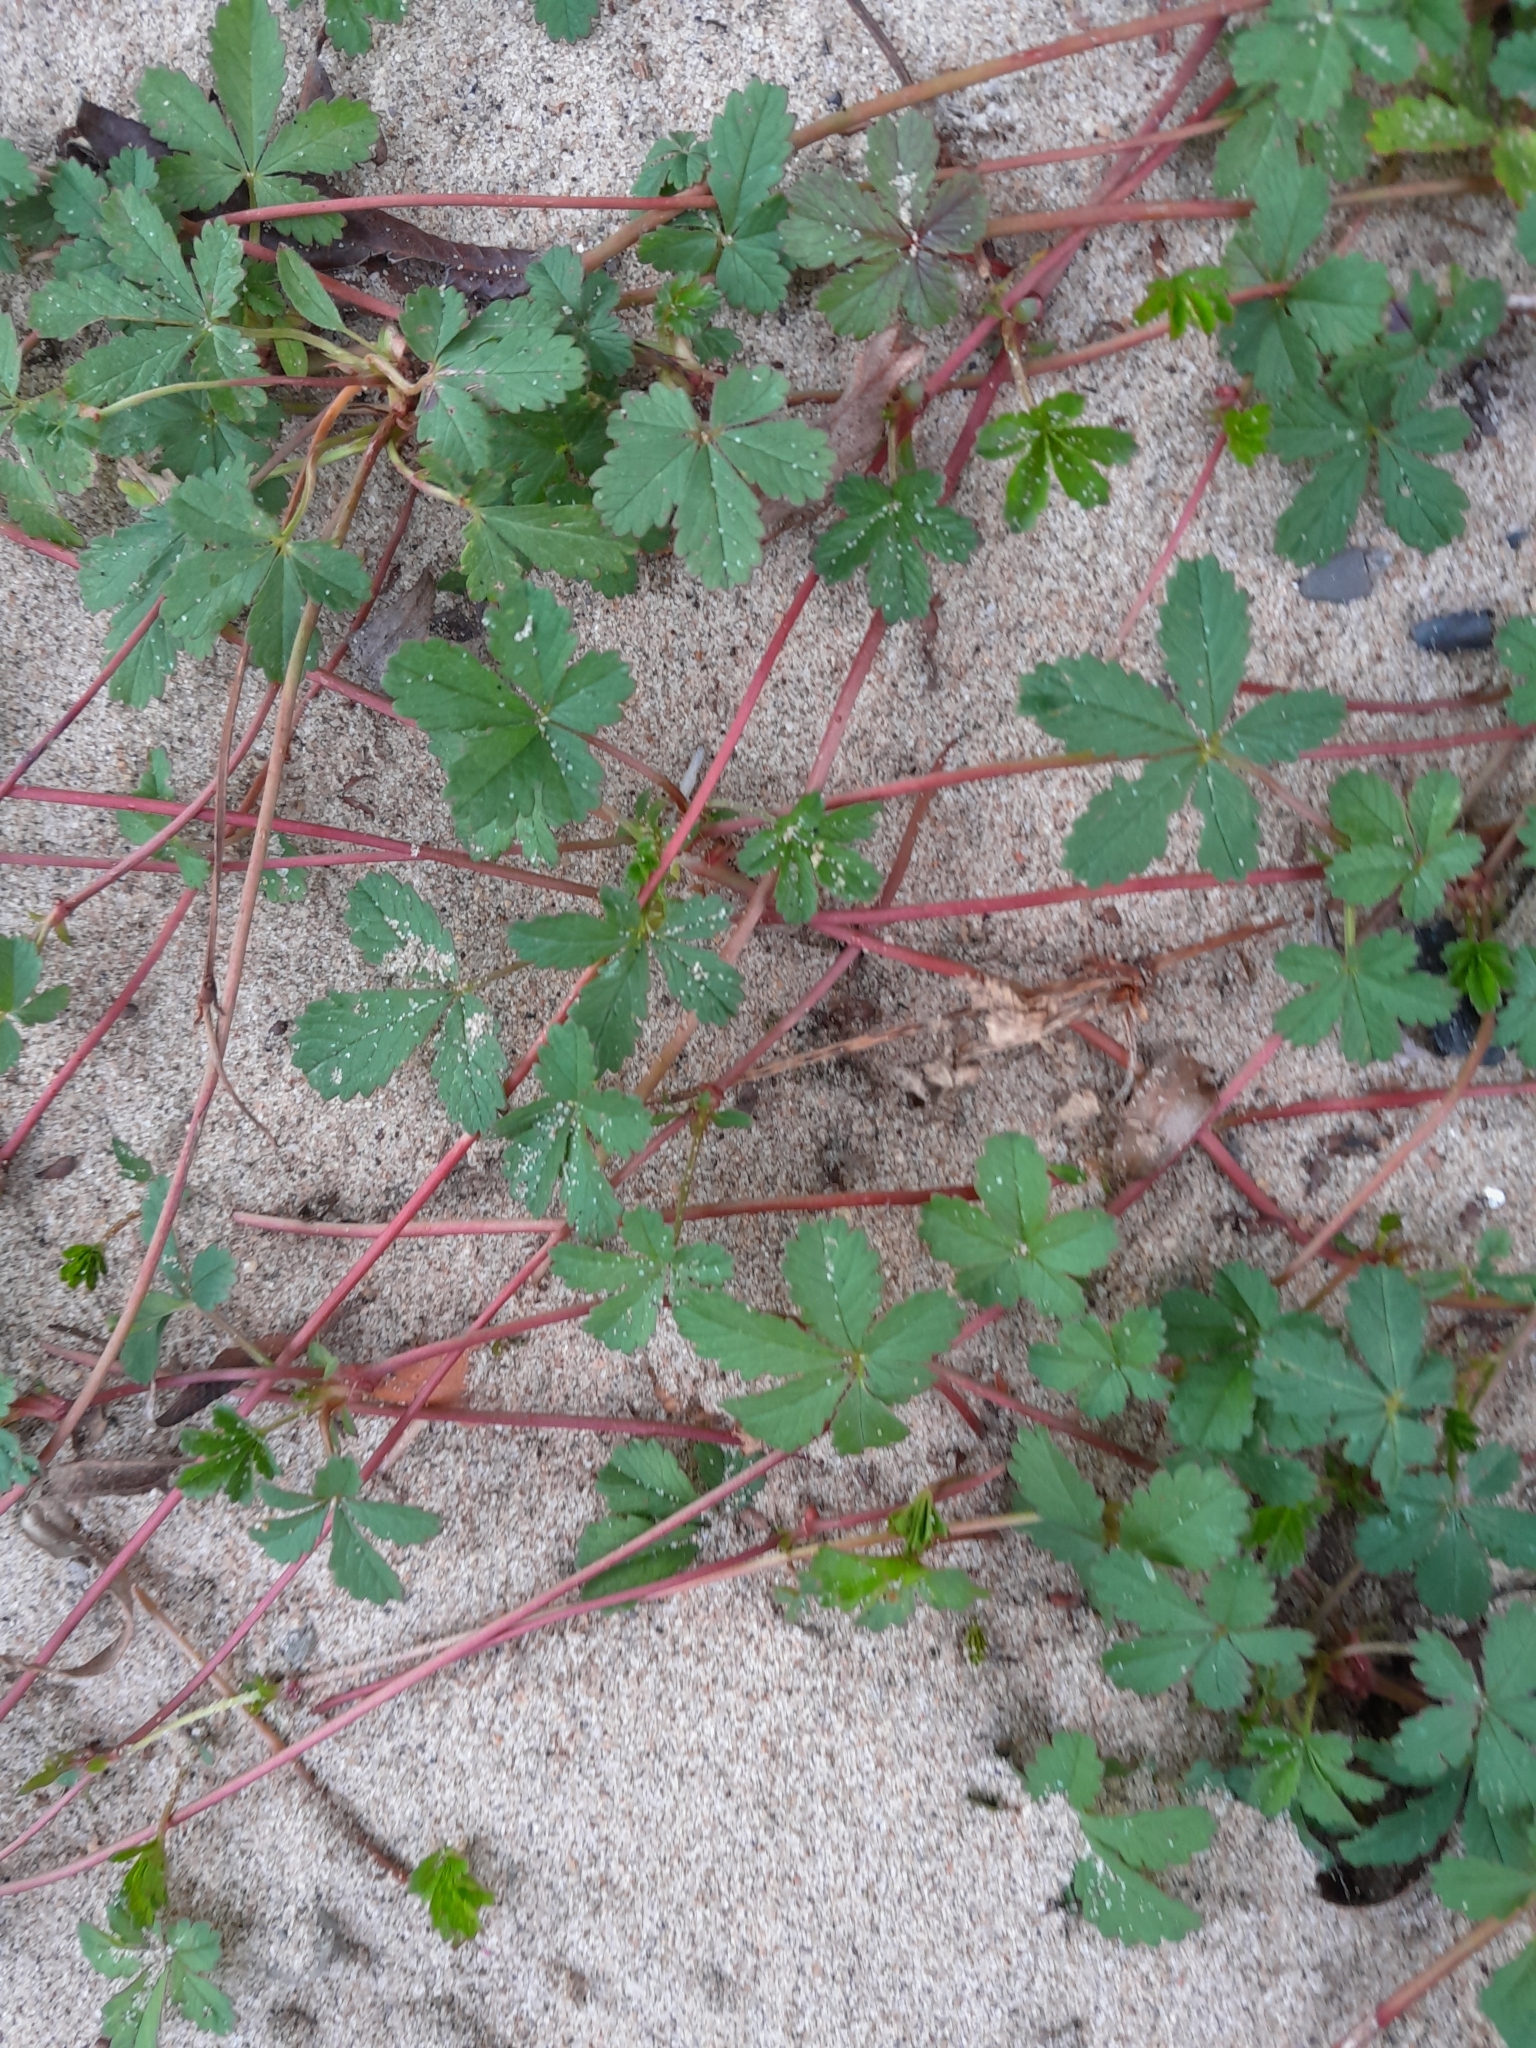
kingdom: Plantae
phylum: Tracheophyta
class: Magnoliopsida
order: Rosales
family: Rosaceae
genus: Potentilla
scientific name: Potentilla reptans
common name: Creeping cinquefoil
